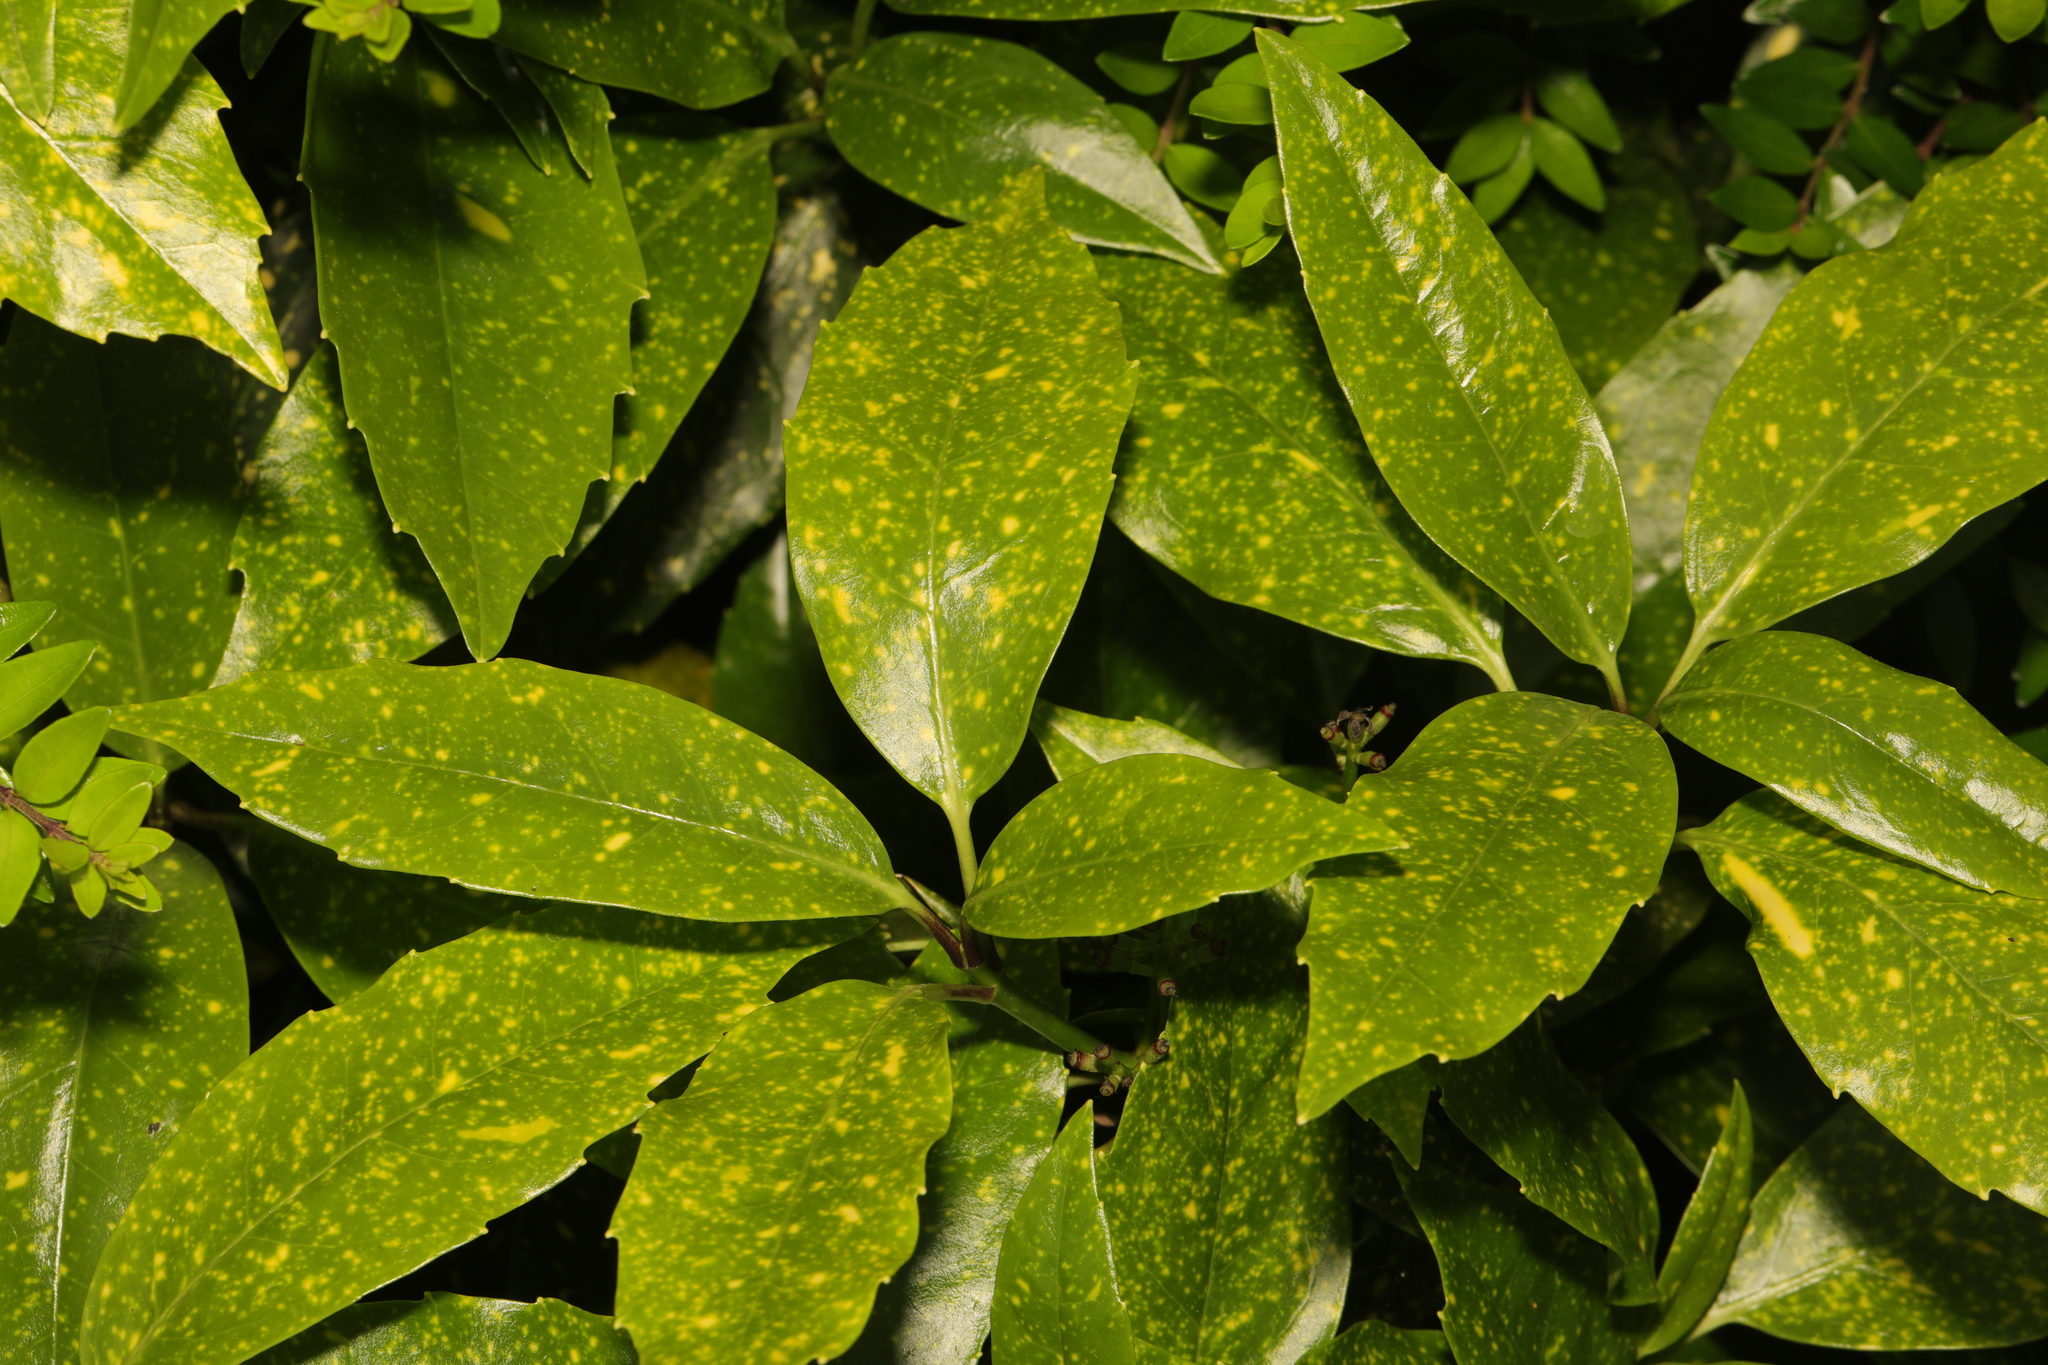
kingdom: Plantae
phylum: Tracheophyta
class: Magnoliopsida
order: Garryales
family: Garryaceae
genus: Aucuba
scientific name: Aucuba japonica
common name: Spotted-laurel
